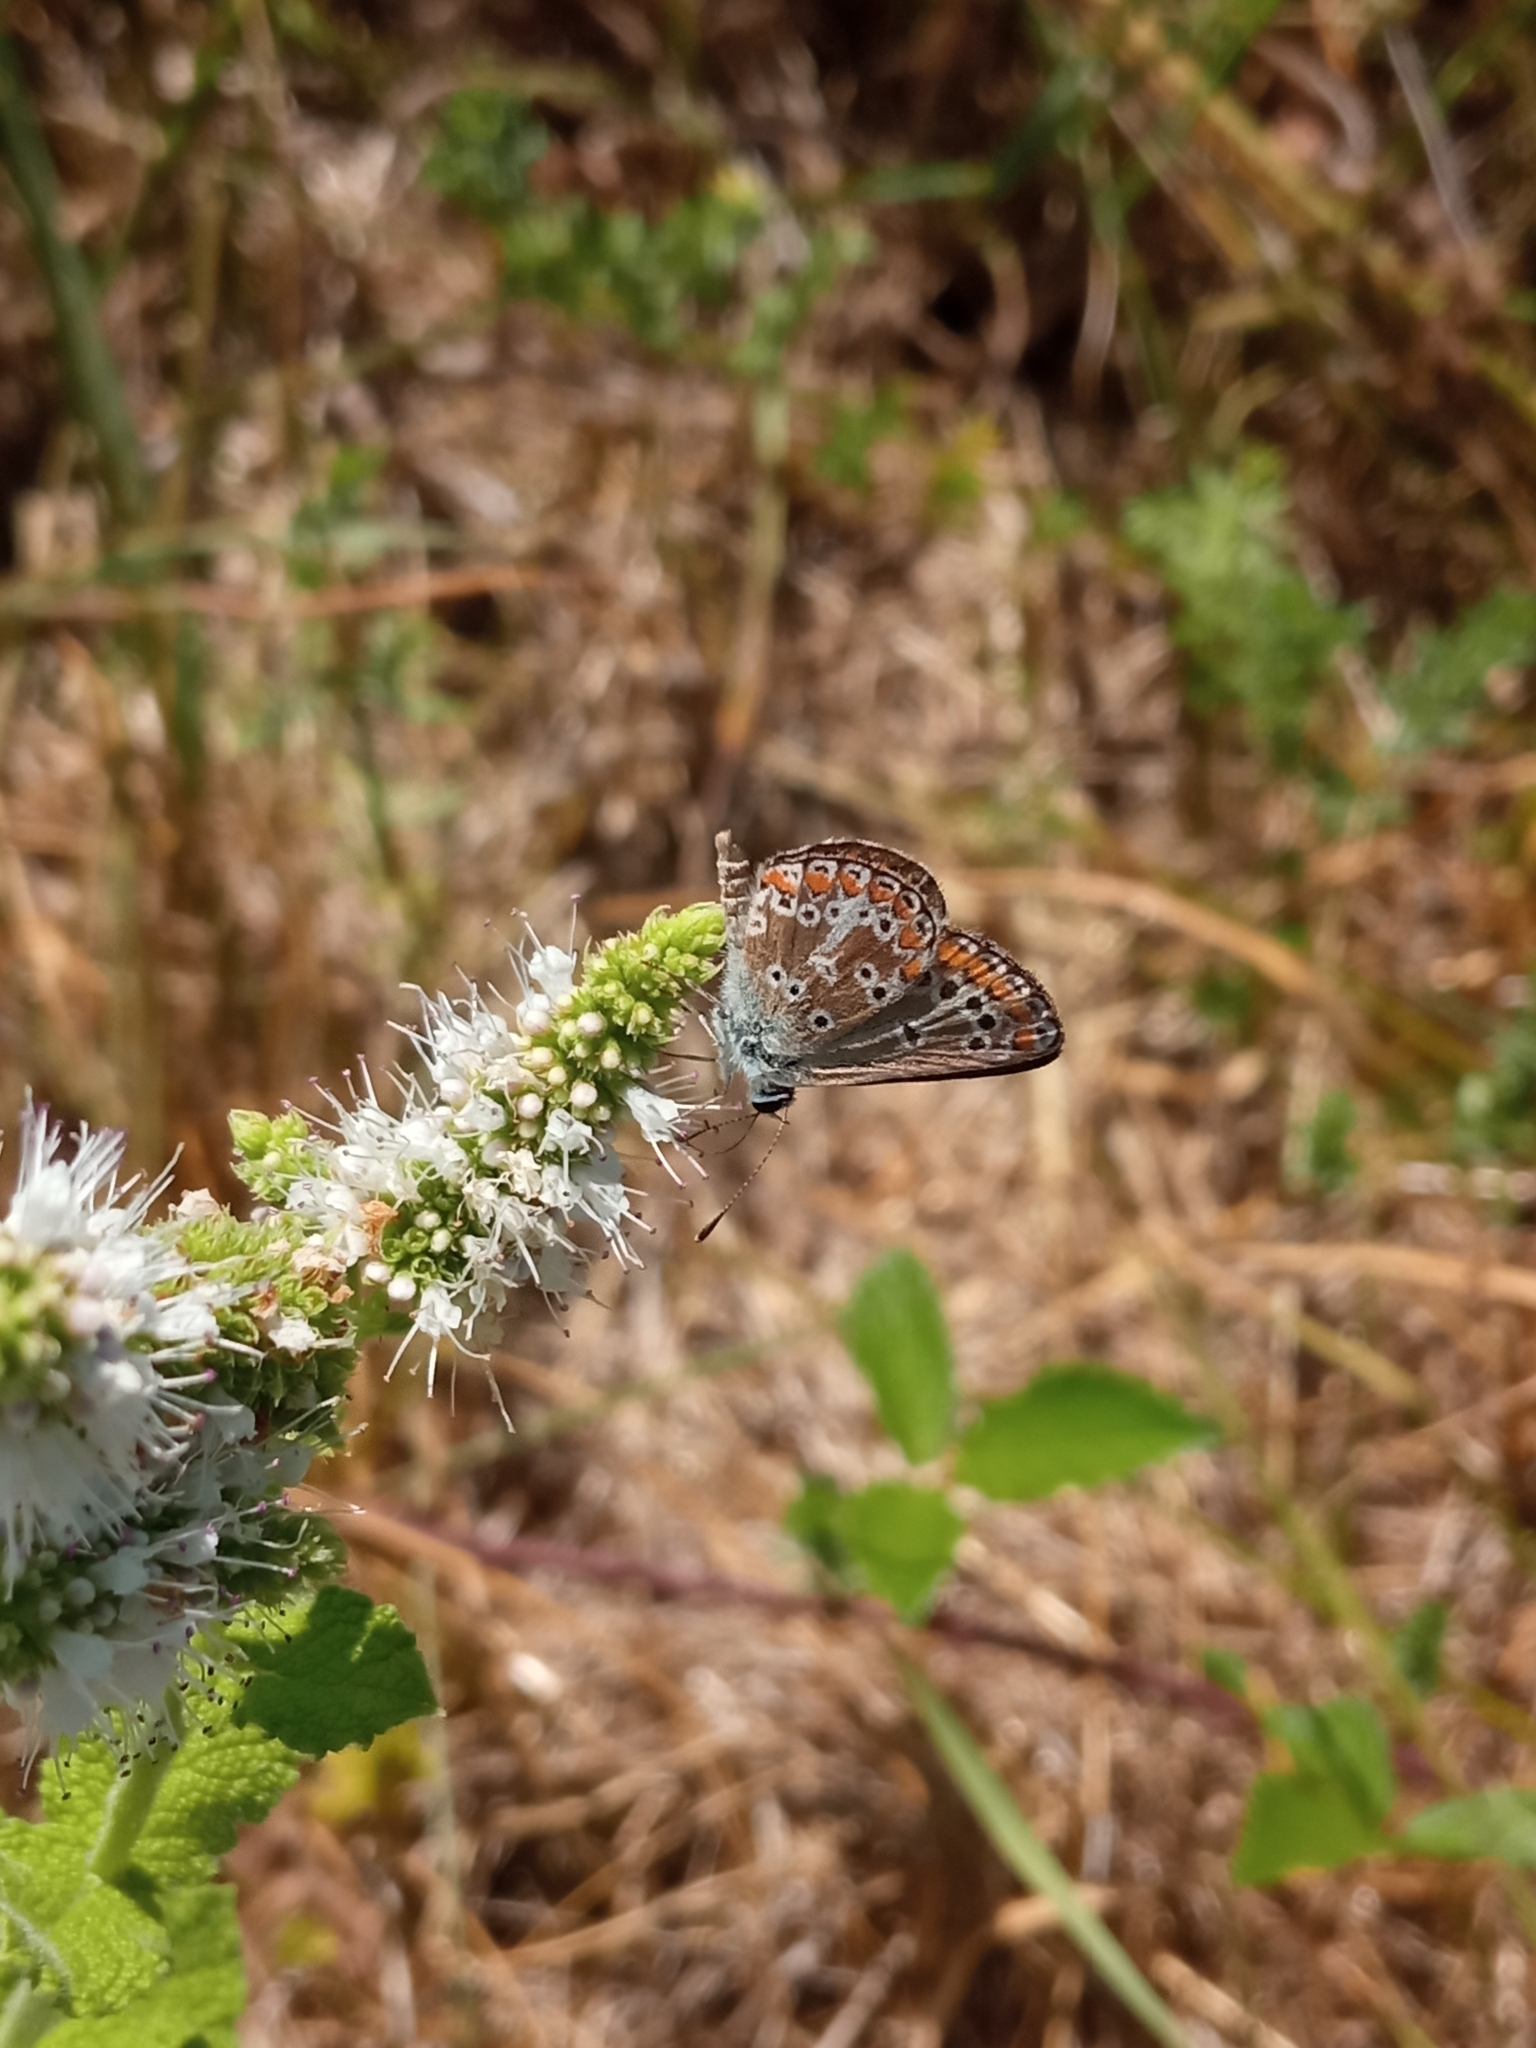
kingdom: Animalia
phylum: Arthropoda
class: Insecta
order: Lepidoptera
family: Lycaenidae
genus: Aricia
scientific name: Aricia agestis
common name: Brown argus
